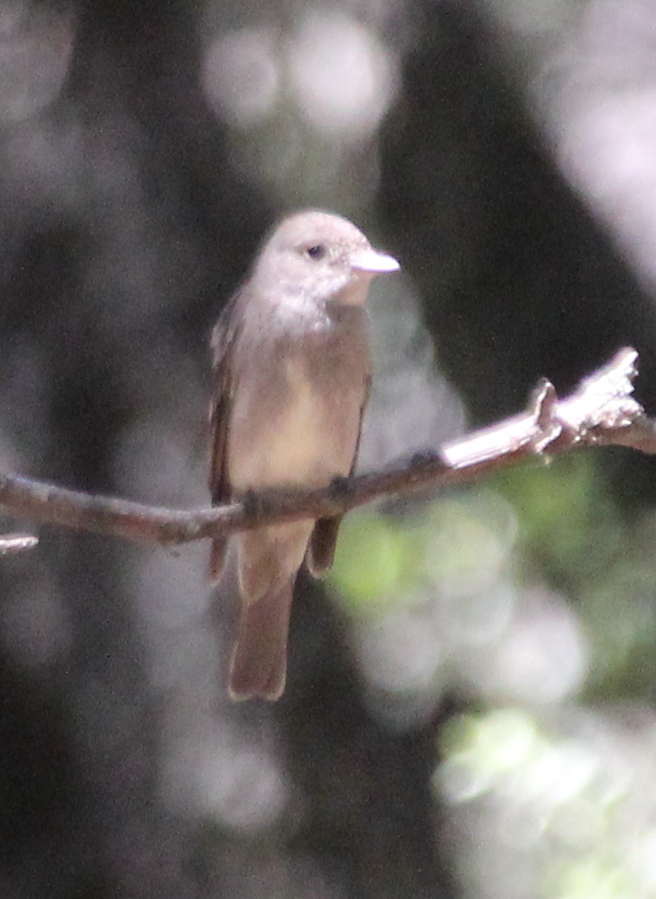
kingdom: Animalia
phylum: Chordata
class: Aves
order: Passeriformes
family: Tyrannidae
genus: Contopus
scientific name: Contopus sordidulus
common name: Western wood-pewee
